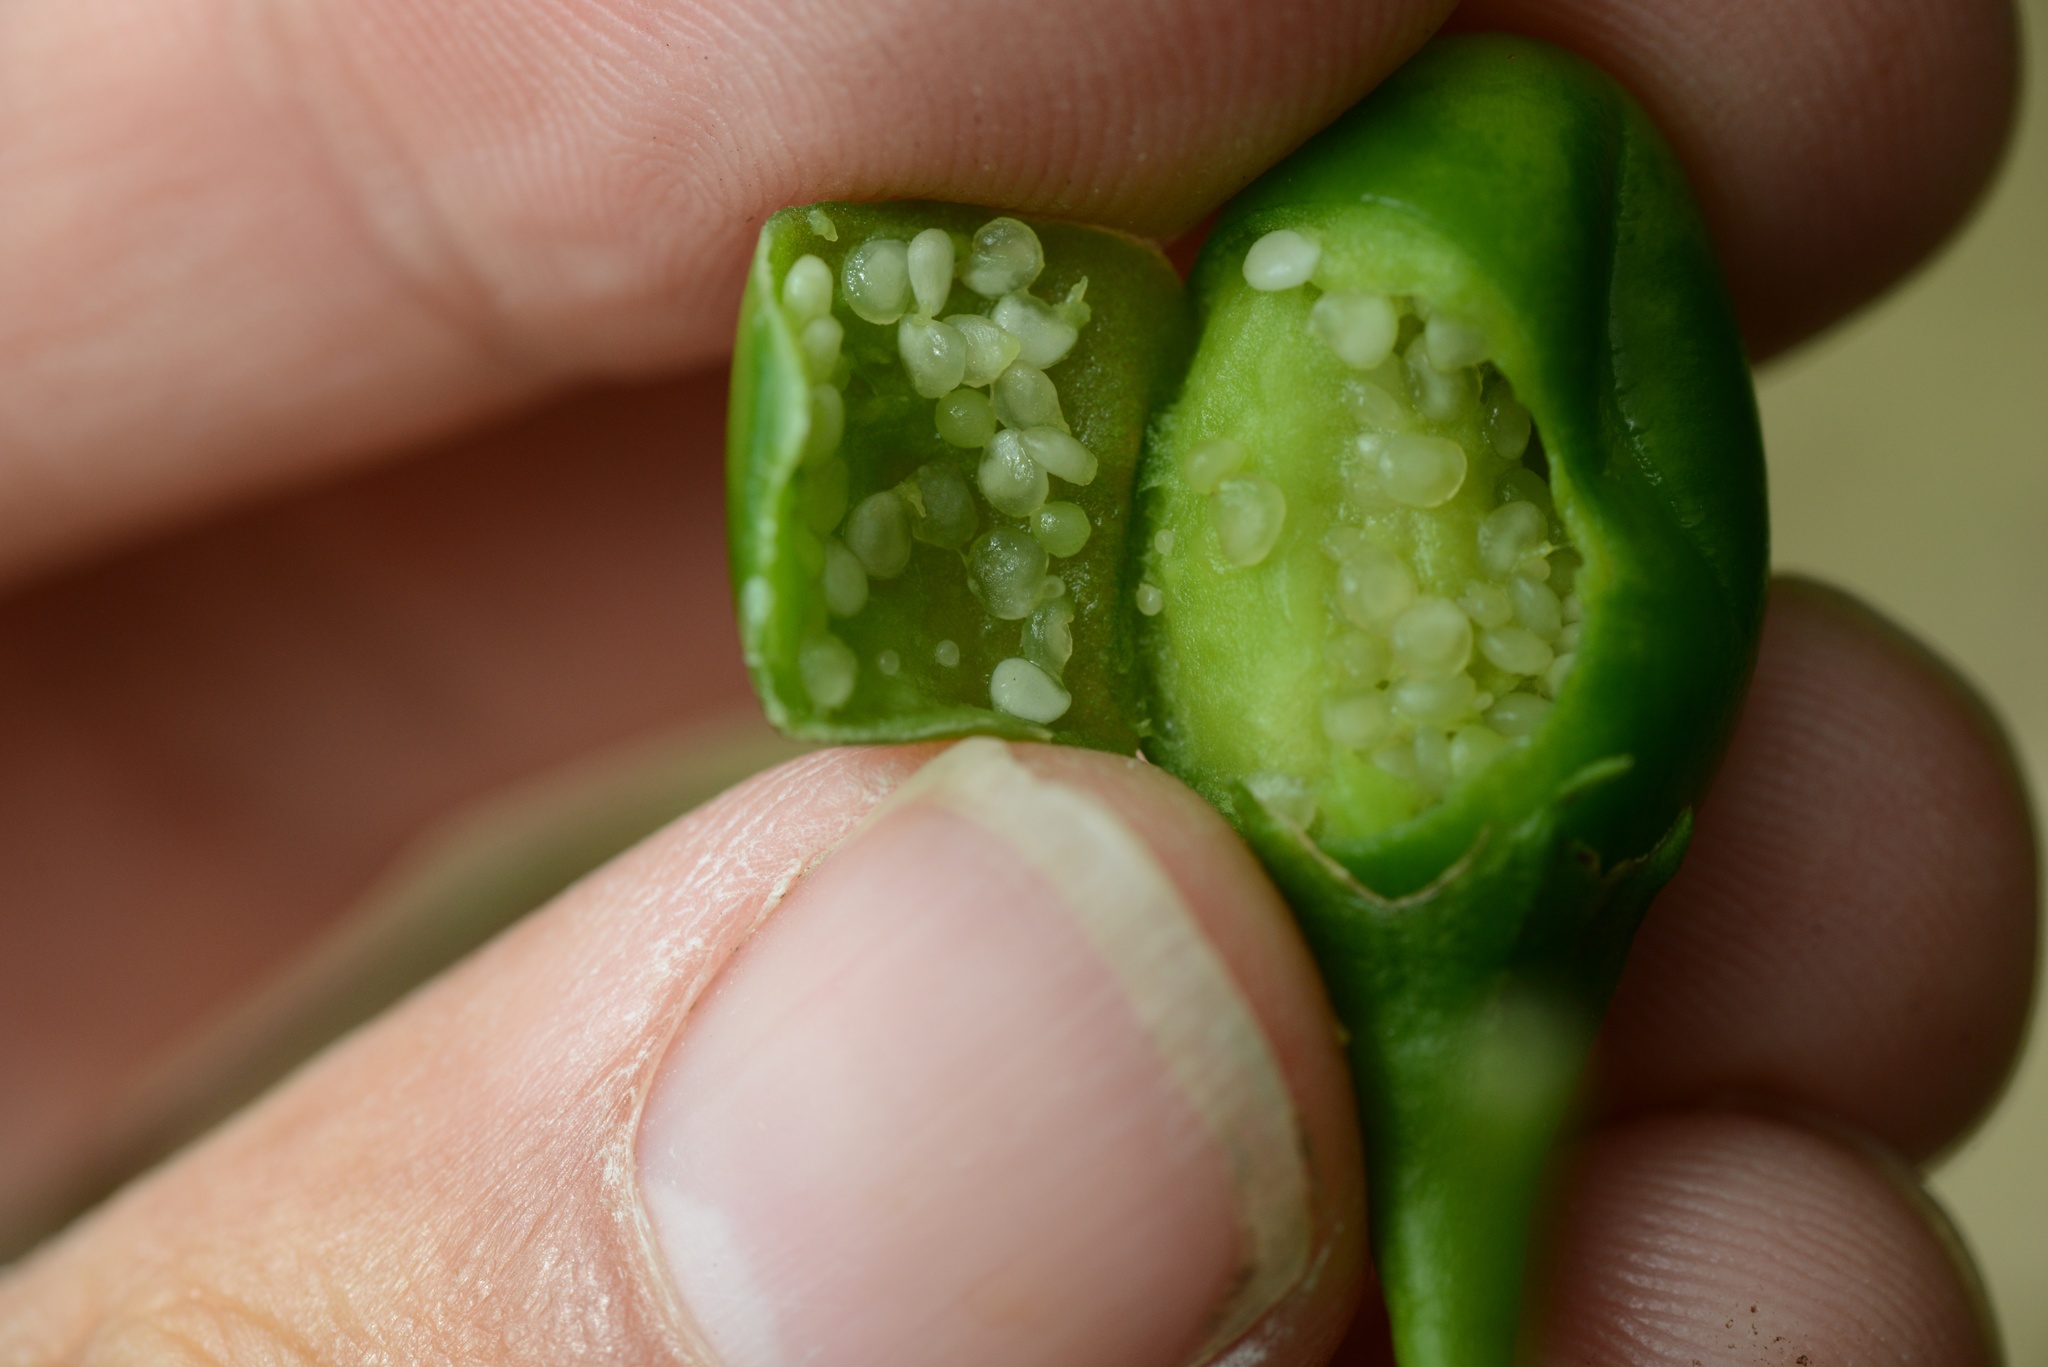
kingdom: Plantae
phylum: Tracheophyta
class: Magnoliopsida
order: Solanales
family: Solanaceae
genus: Solanum
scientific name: Solanum laciniatum
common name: Kangaroo-apple
